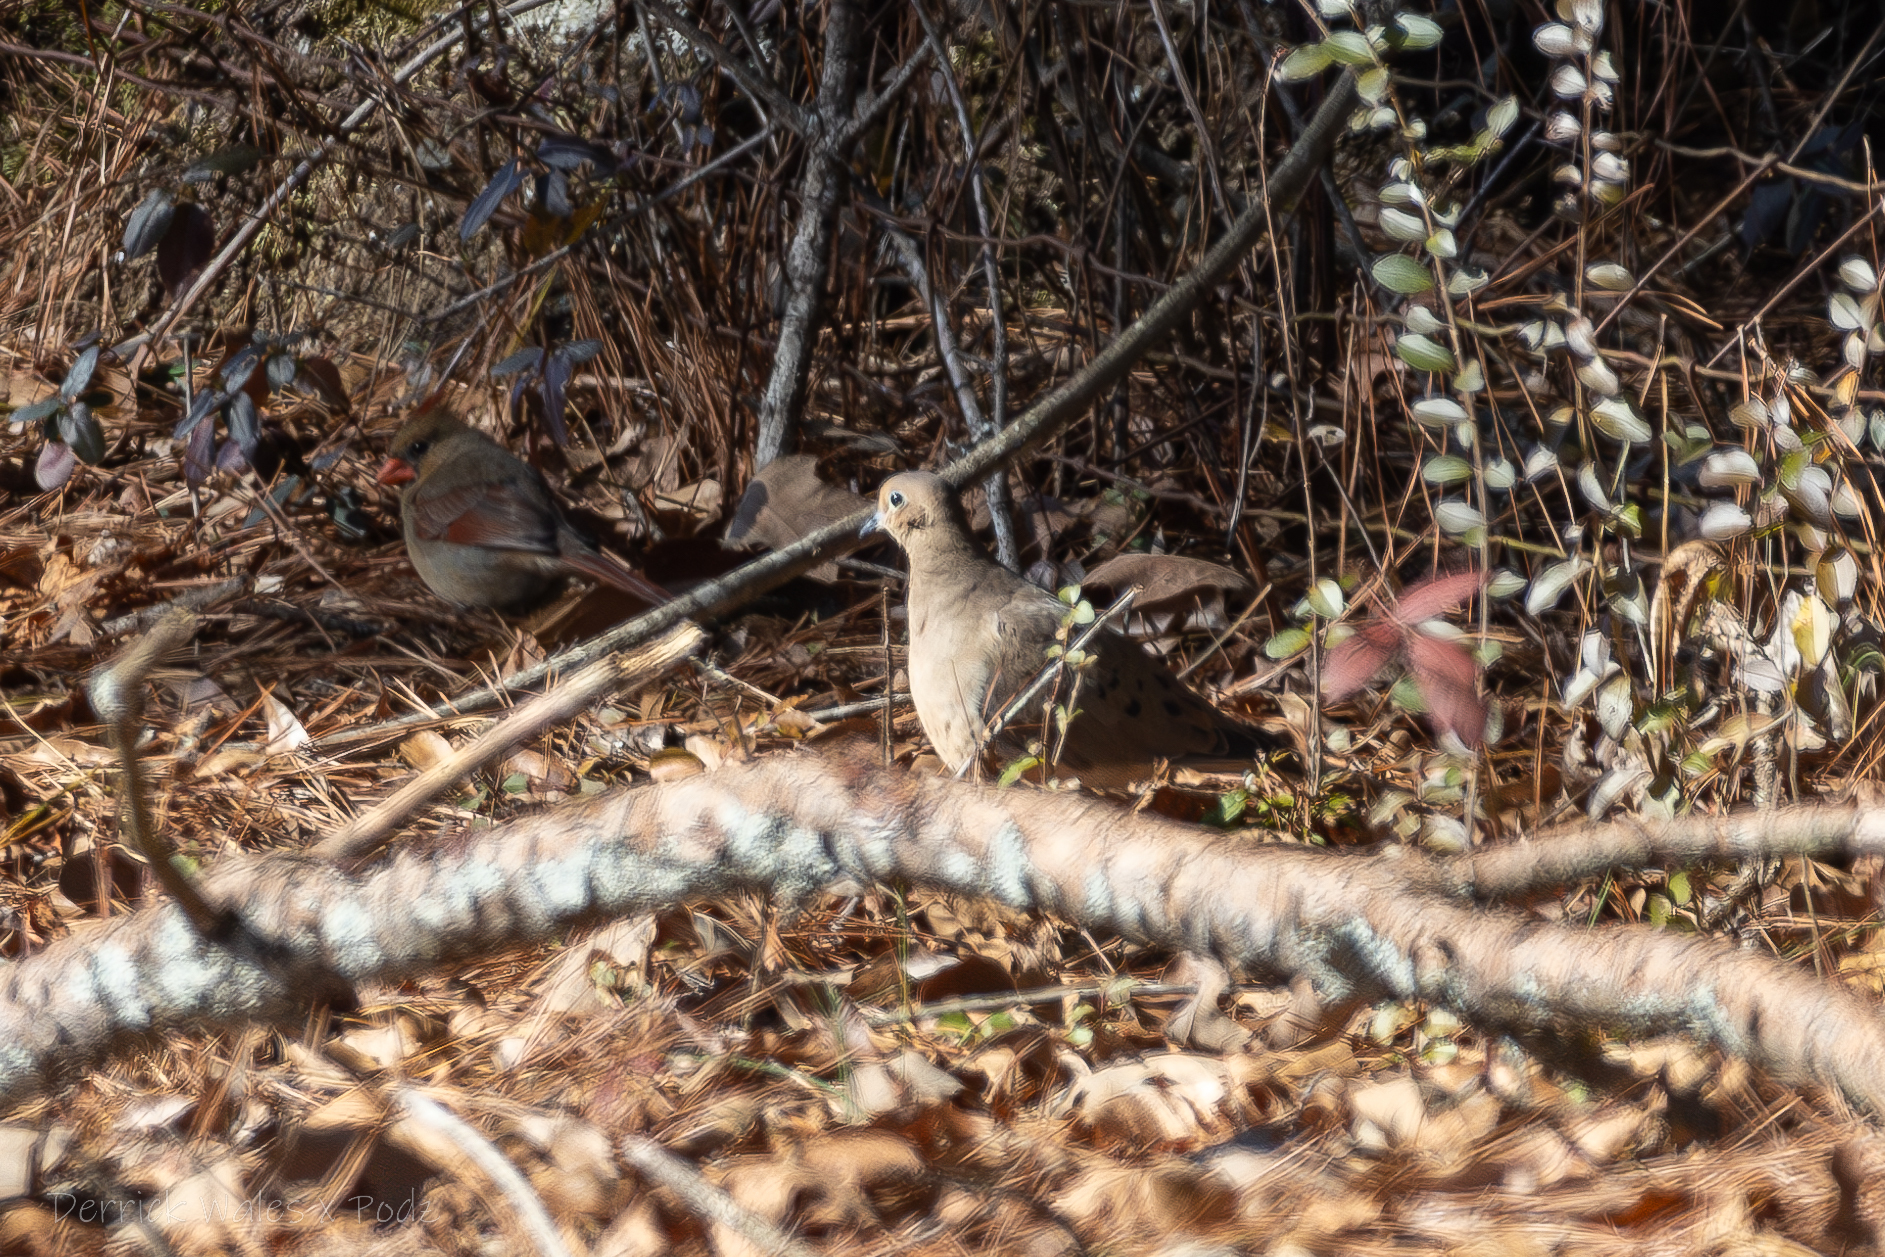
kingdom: Animalia
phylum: Chordata
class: Aves
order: Columbiformes
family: Columbidae
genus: Zenaida
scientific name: Zenaida macroura
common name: Mourning dove
